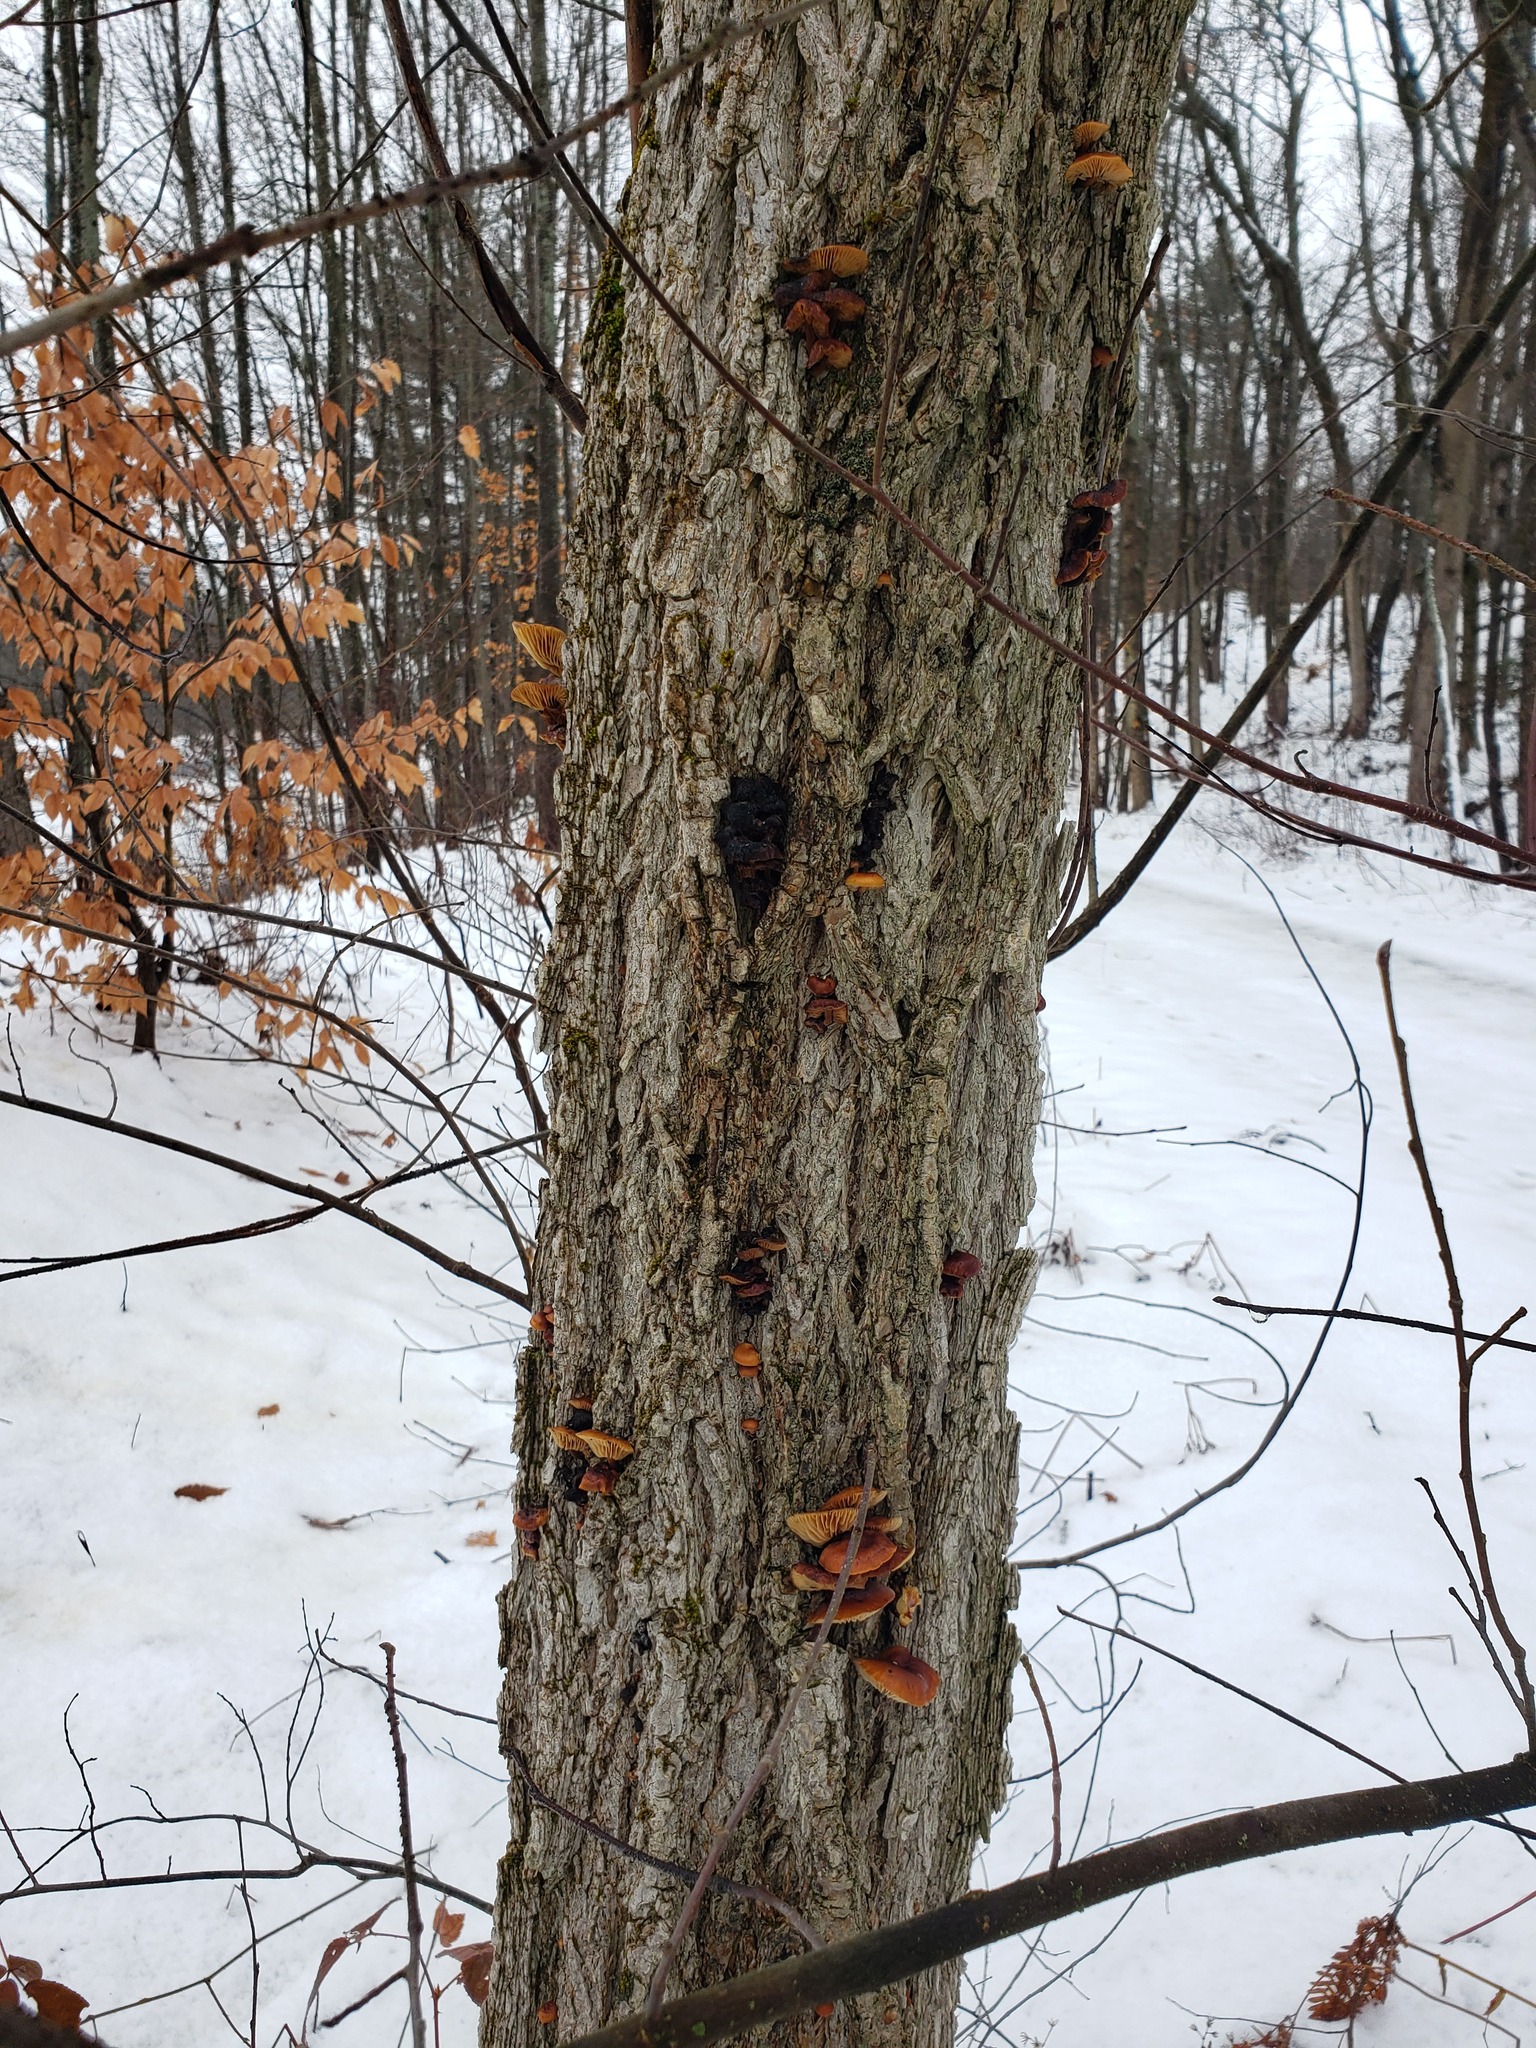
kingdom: Plantae
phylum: Tracheophyta
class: Magnoliopsida
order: Lamiales
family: Oleaceae
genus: Fraxinus
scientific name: Fraxinus nigra
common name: Black ash
